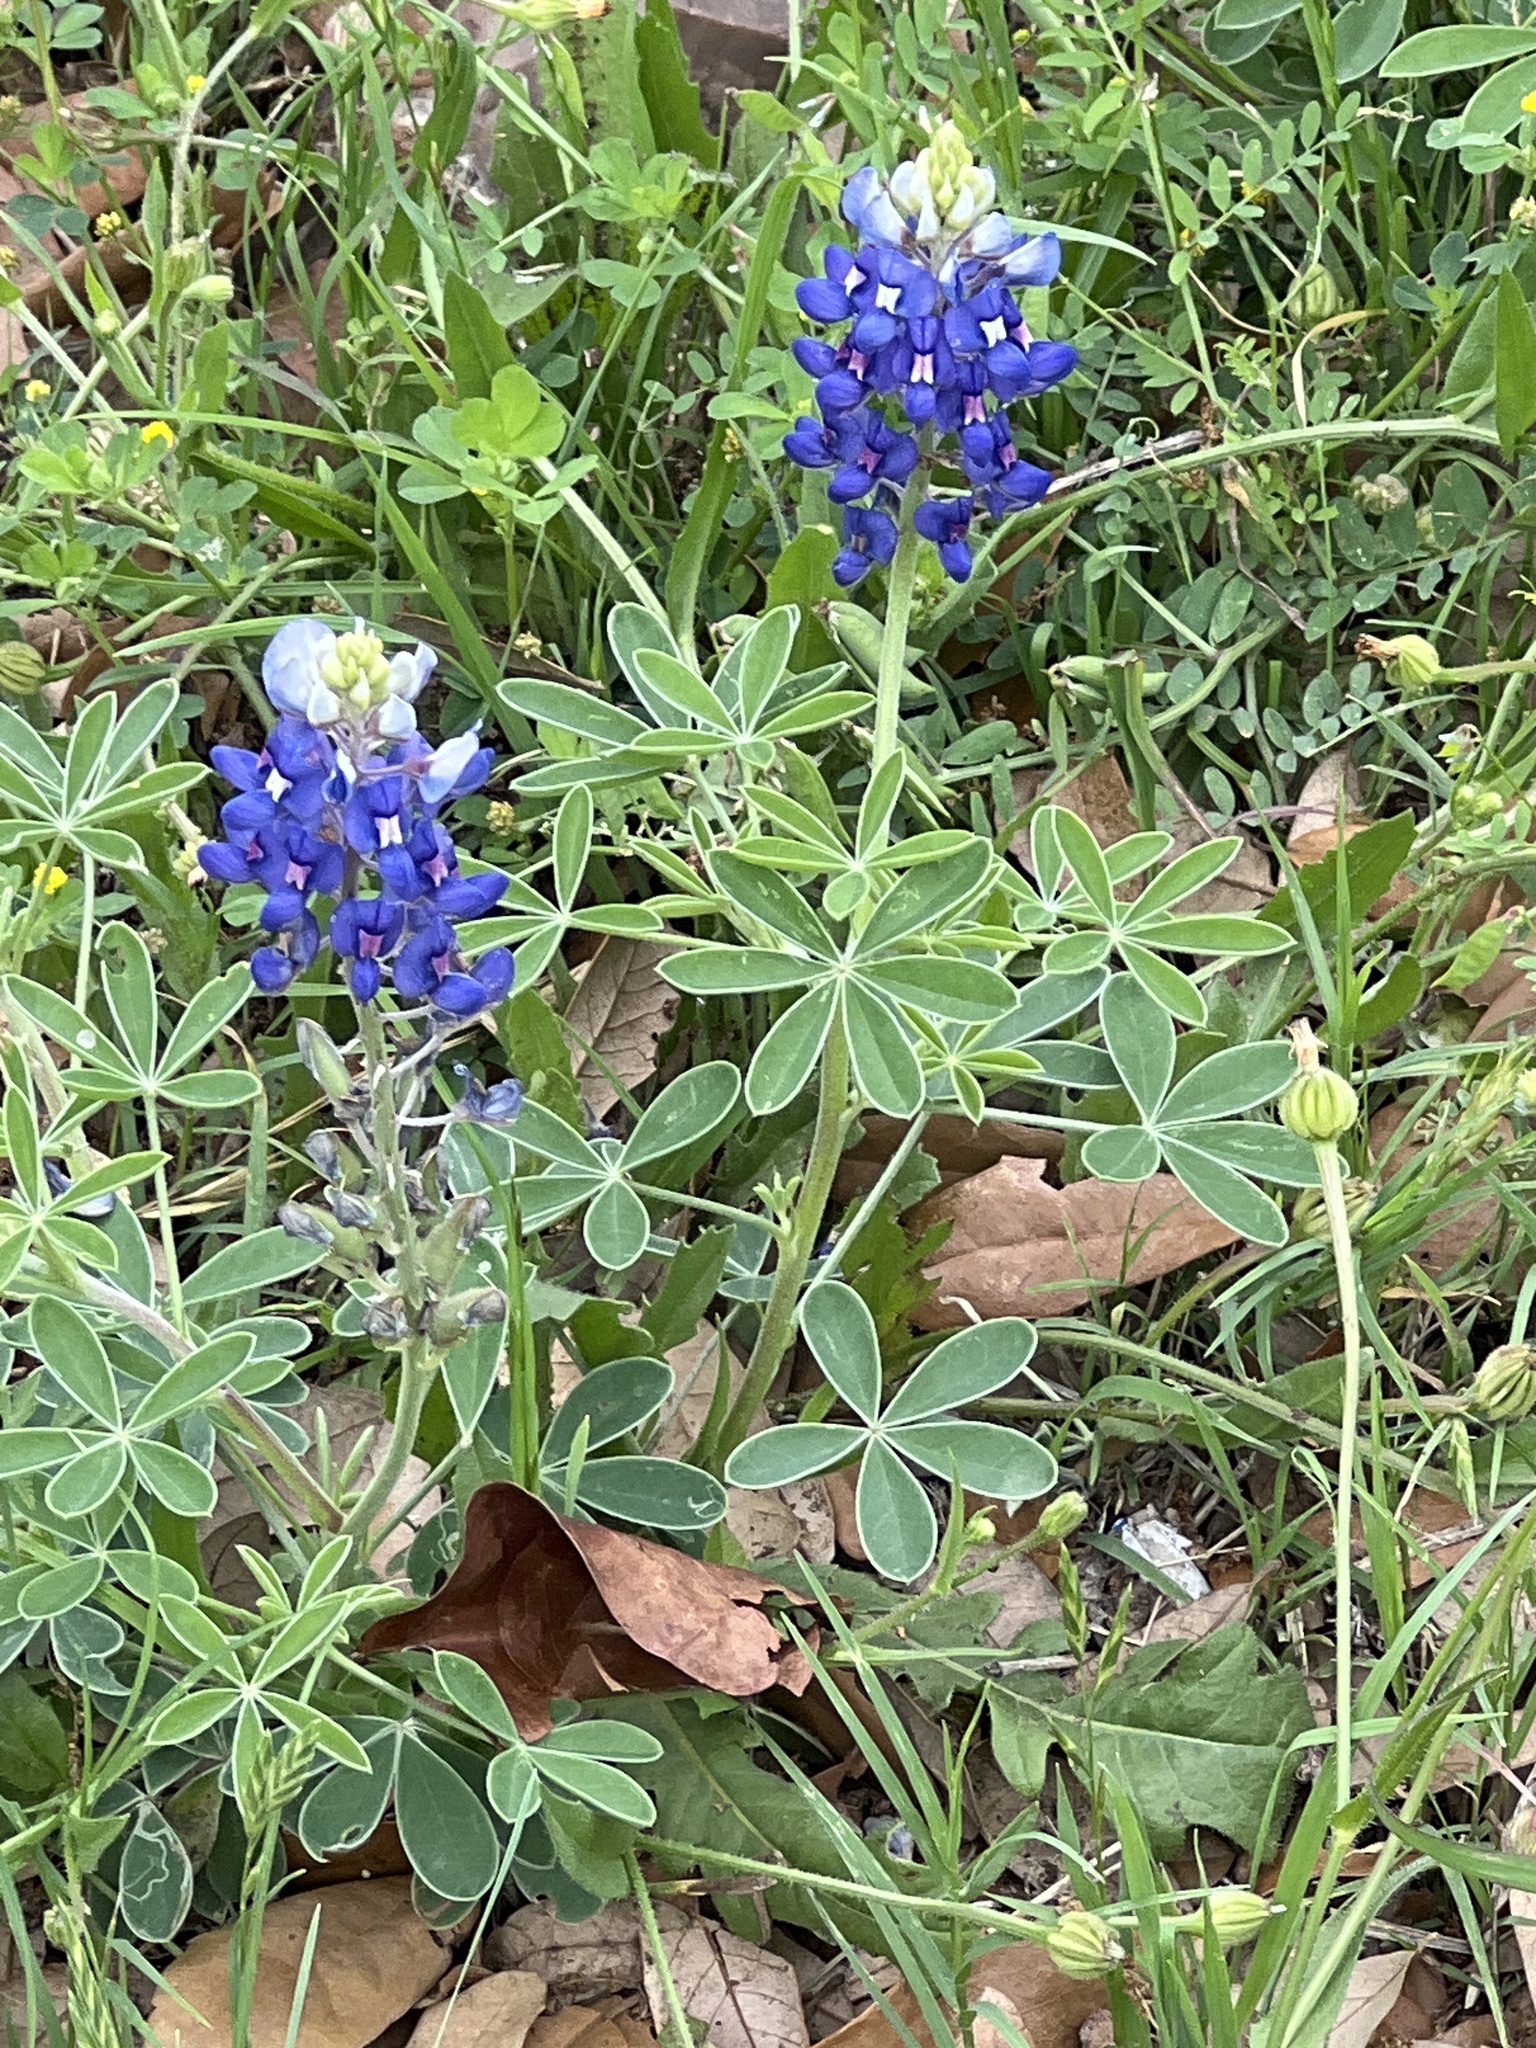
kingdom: Plantae
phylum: Tracheophyta
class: Magnoliopsida
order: Fabales
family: Fabaceae
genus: Lupinus
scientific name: Lupinus texensis
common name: Texas bluebonnet
